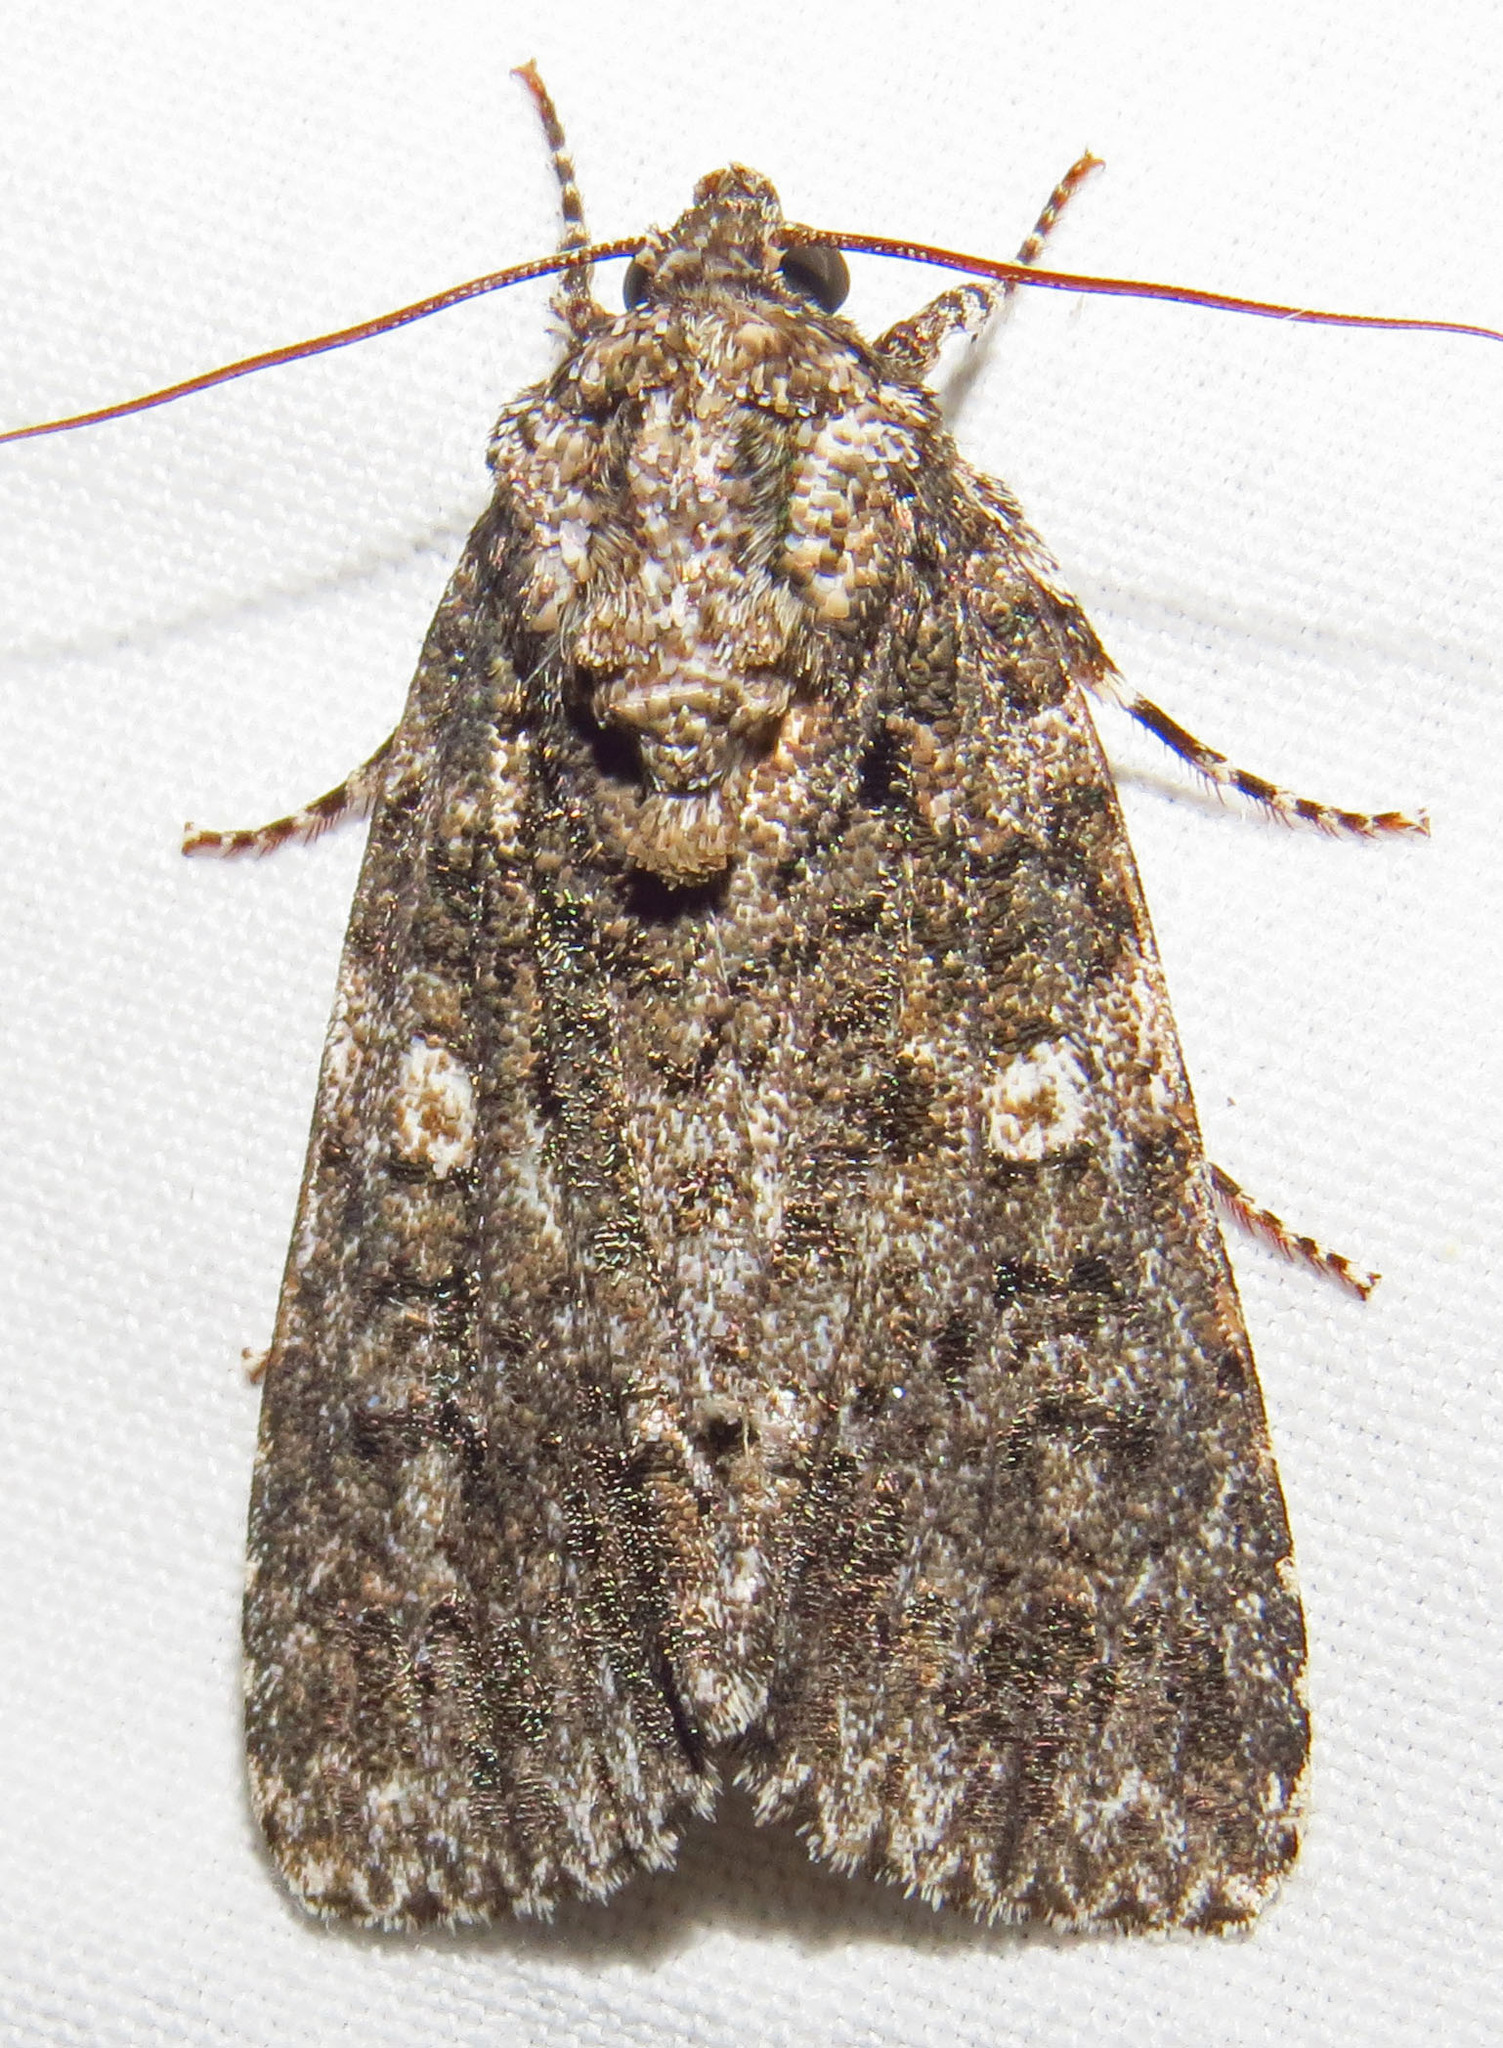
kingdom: Animalia
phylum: Arthropoda
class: Insecta
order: Lepidoptera
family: Noctuidae
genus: Acronicta
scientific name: Acronicta afflicta
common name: Afflicted dagger moth
